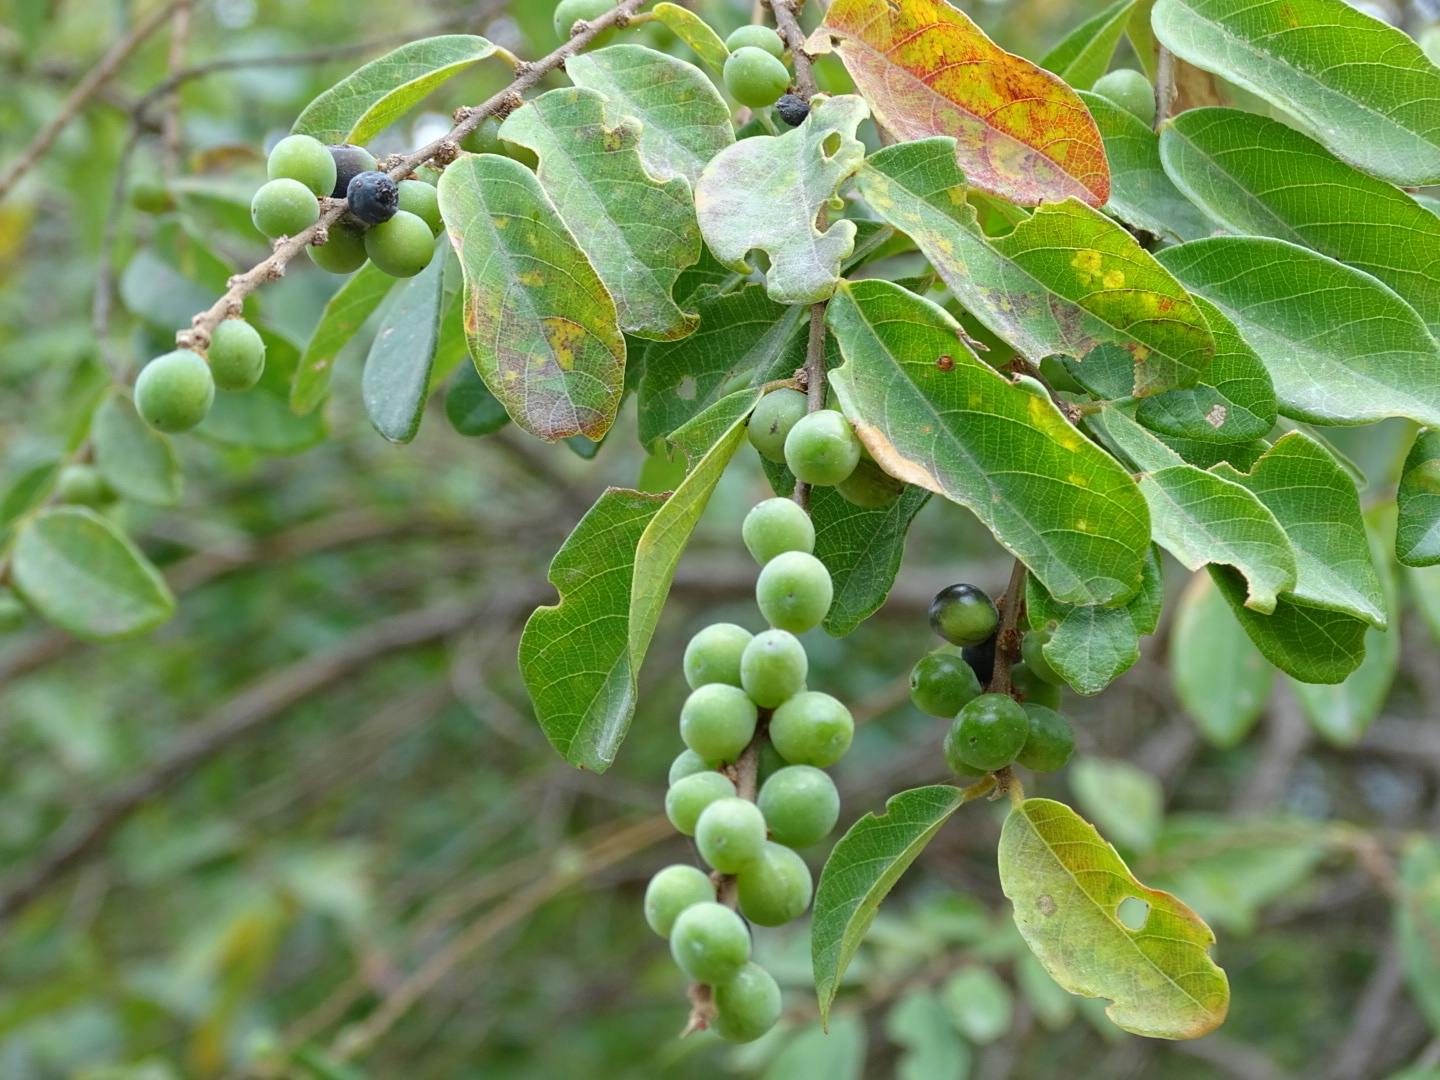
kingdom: Plantae
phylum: Tracheophyta
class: Magnoliopsida
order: Malpighiales
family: Phyllanthaceae
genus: Bridelia
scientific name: Bridelia tomentosa
